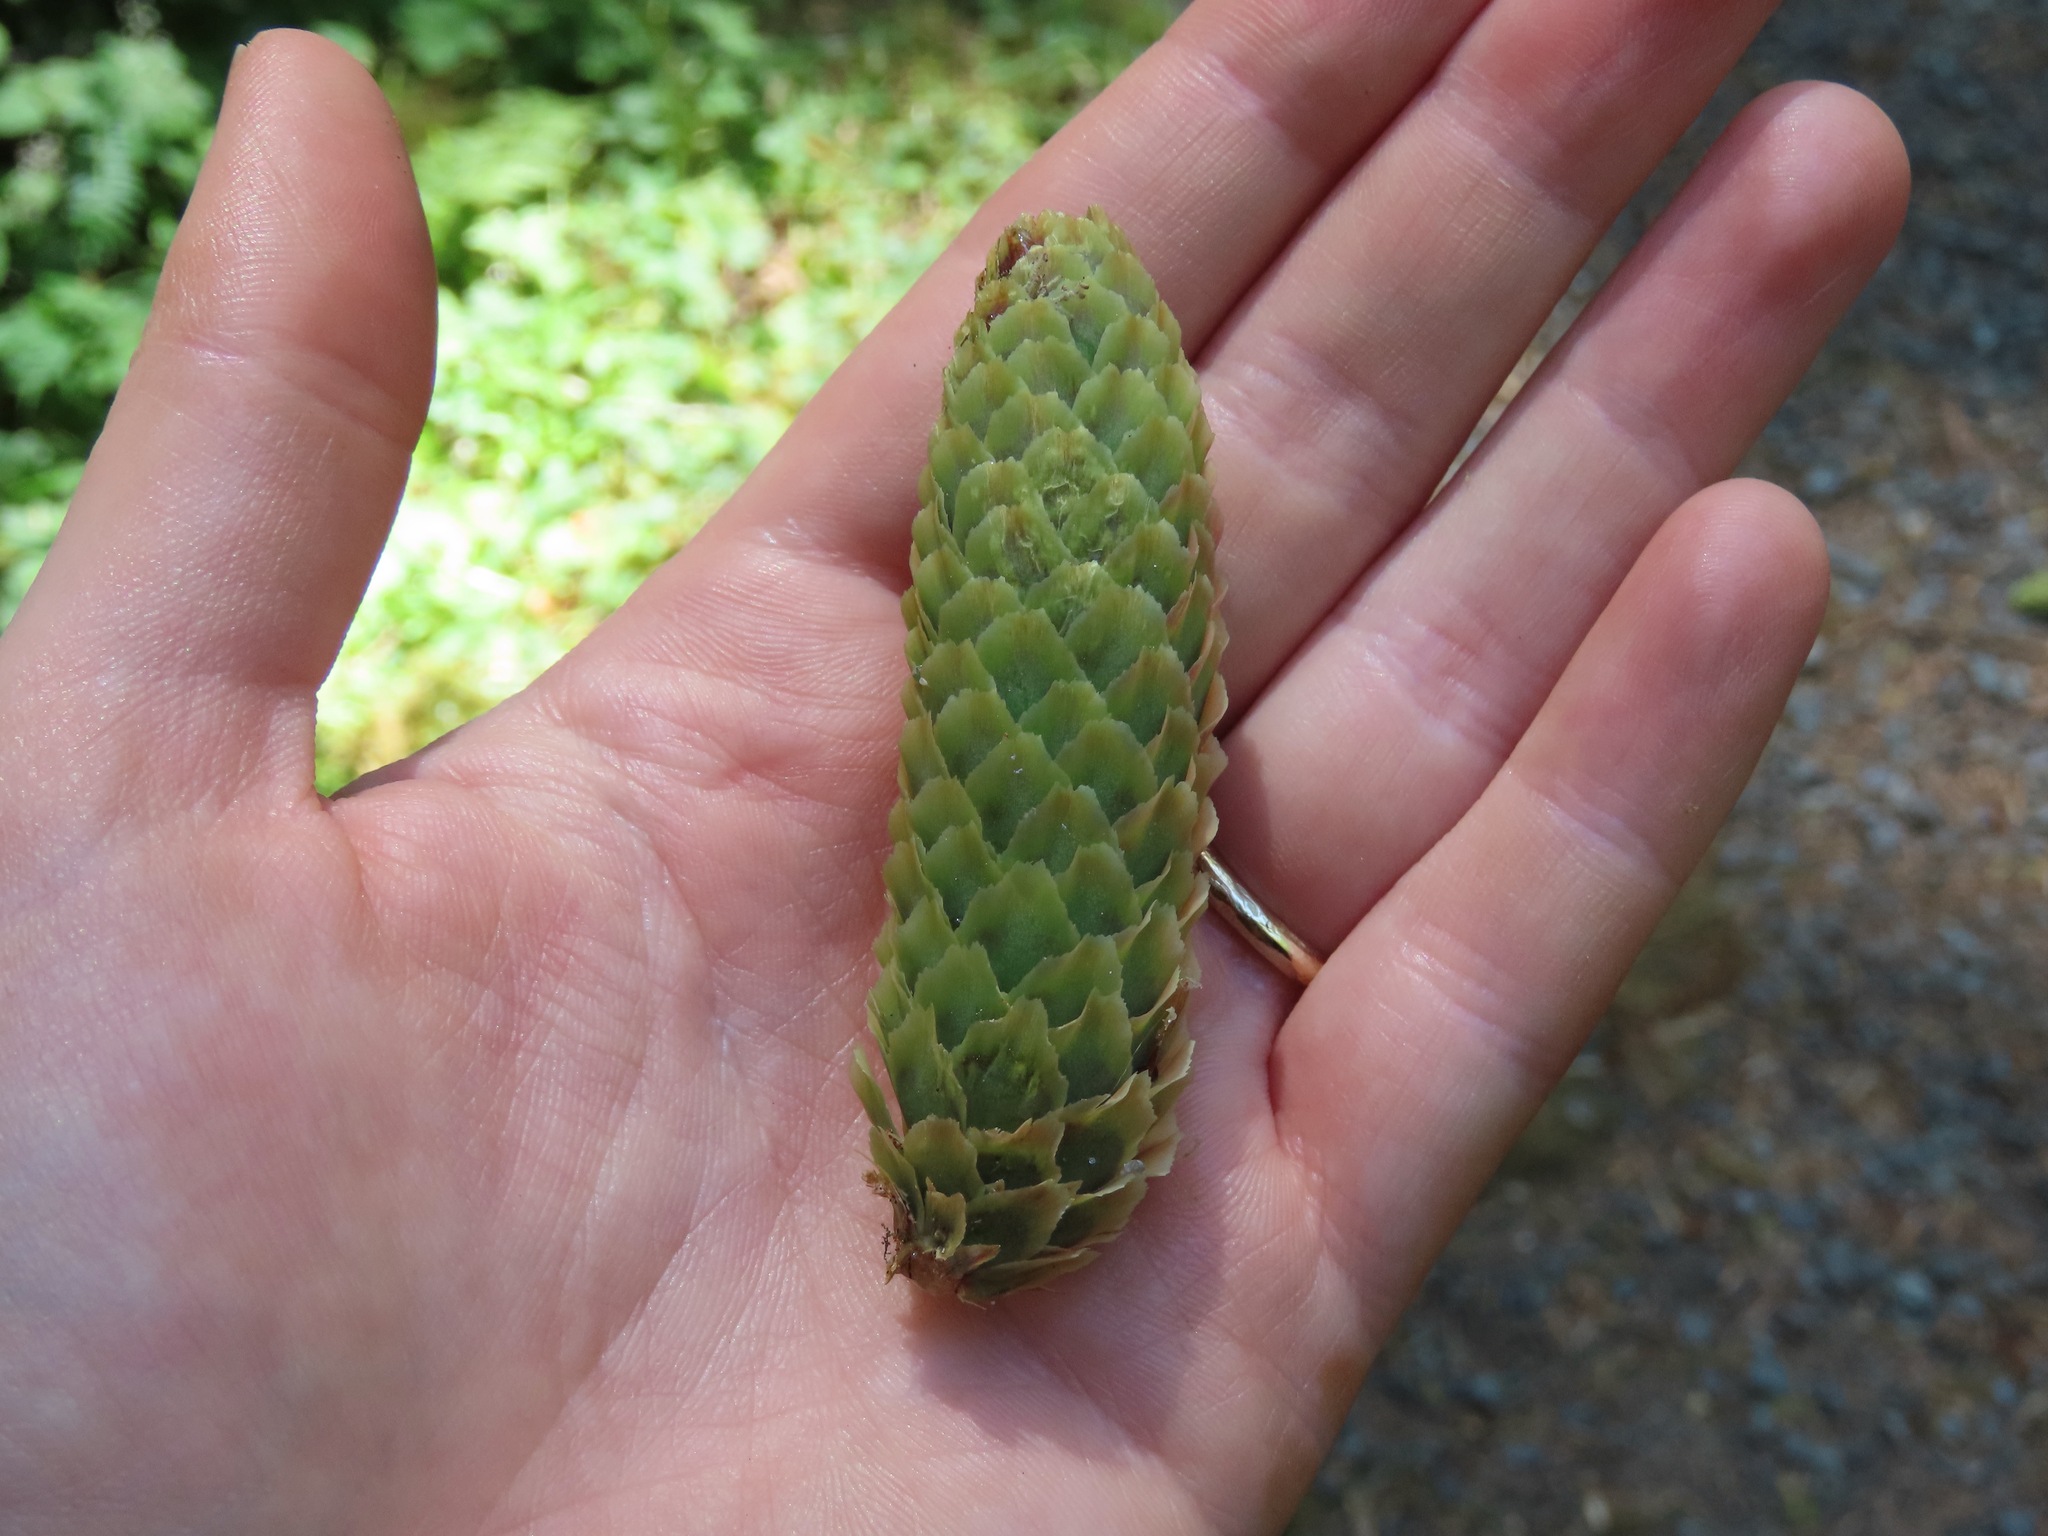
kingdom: Plantae
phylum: Tracheophyta
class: Pinopsida
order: Pinales
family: Pinaceae
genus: Picea
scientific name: Picea sitchensis
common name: Sitka spruce
